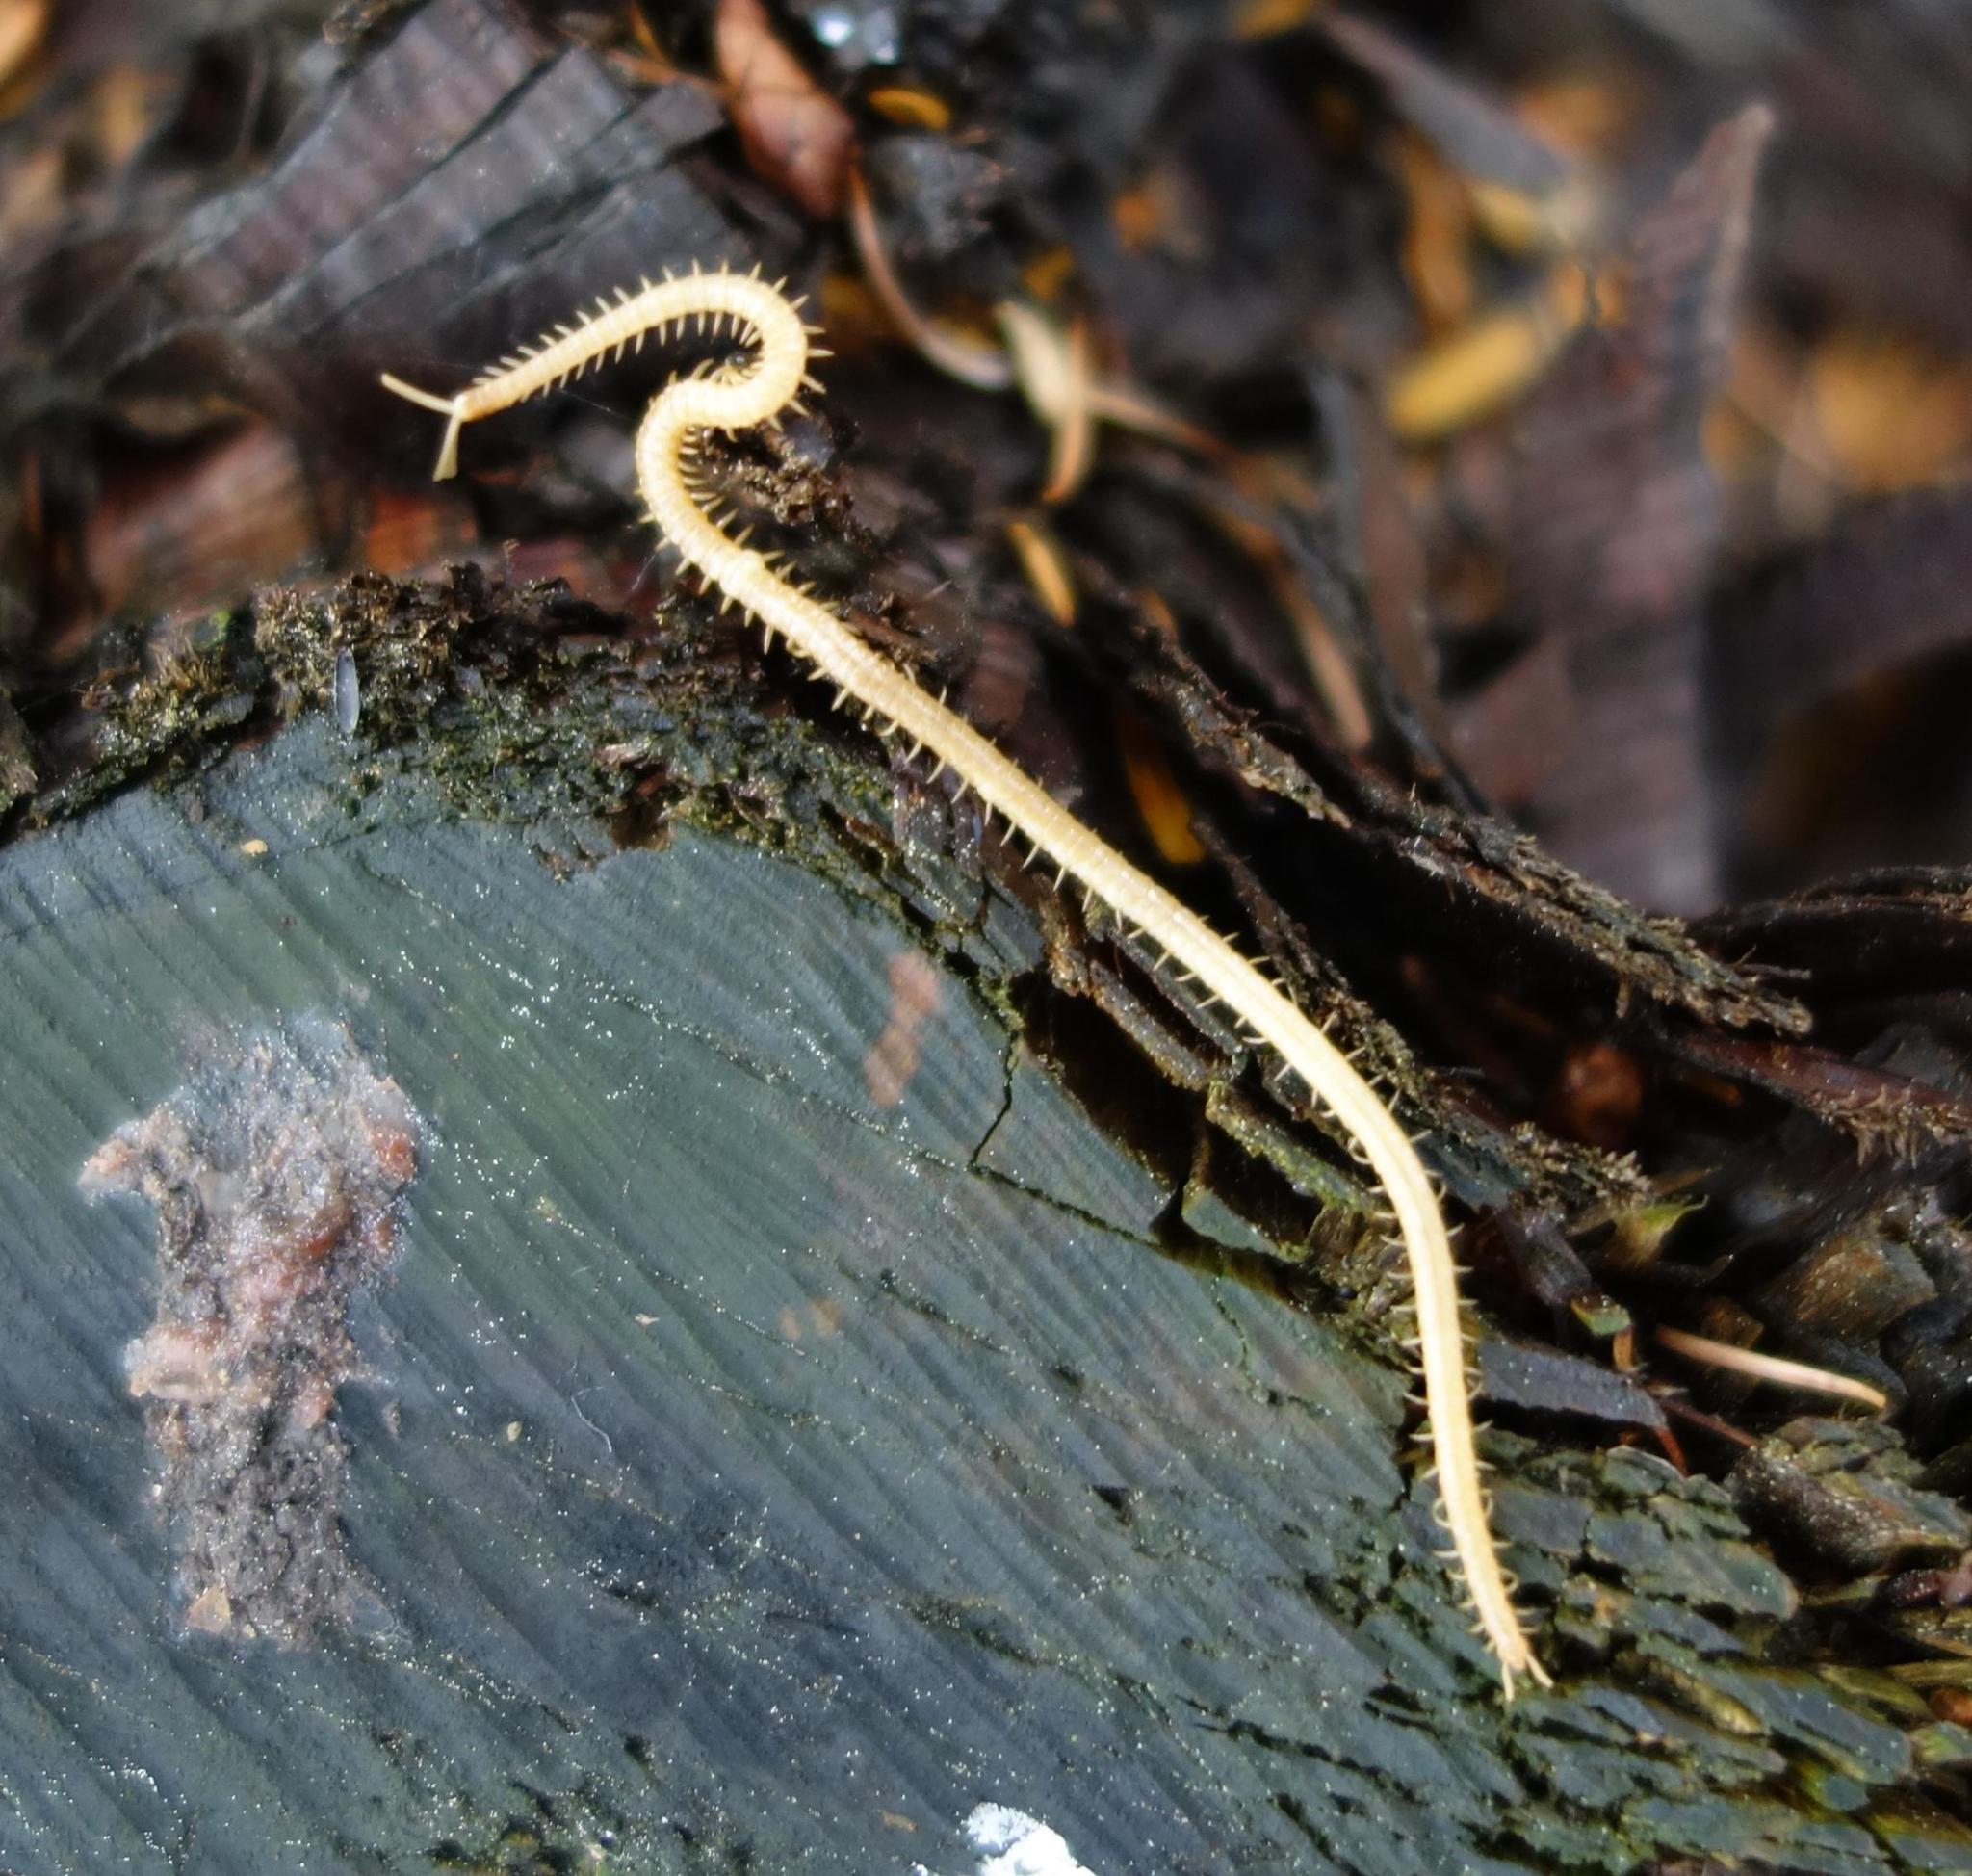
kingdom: Animalia
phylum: Arthropoda
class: Chilopoda
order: Geophilomorpha
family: Dignathodontidae
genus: Henia
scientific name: Henia illyrica
